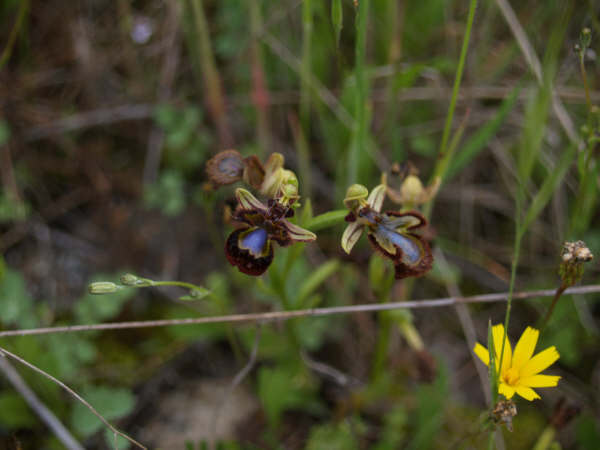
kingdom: Plantae
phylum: Tracheophyta
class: Liliopsida
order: Asparagales
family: Orchidaceae
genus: Ophrys
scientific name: Ophrys speculum
